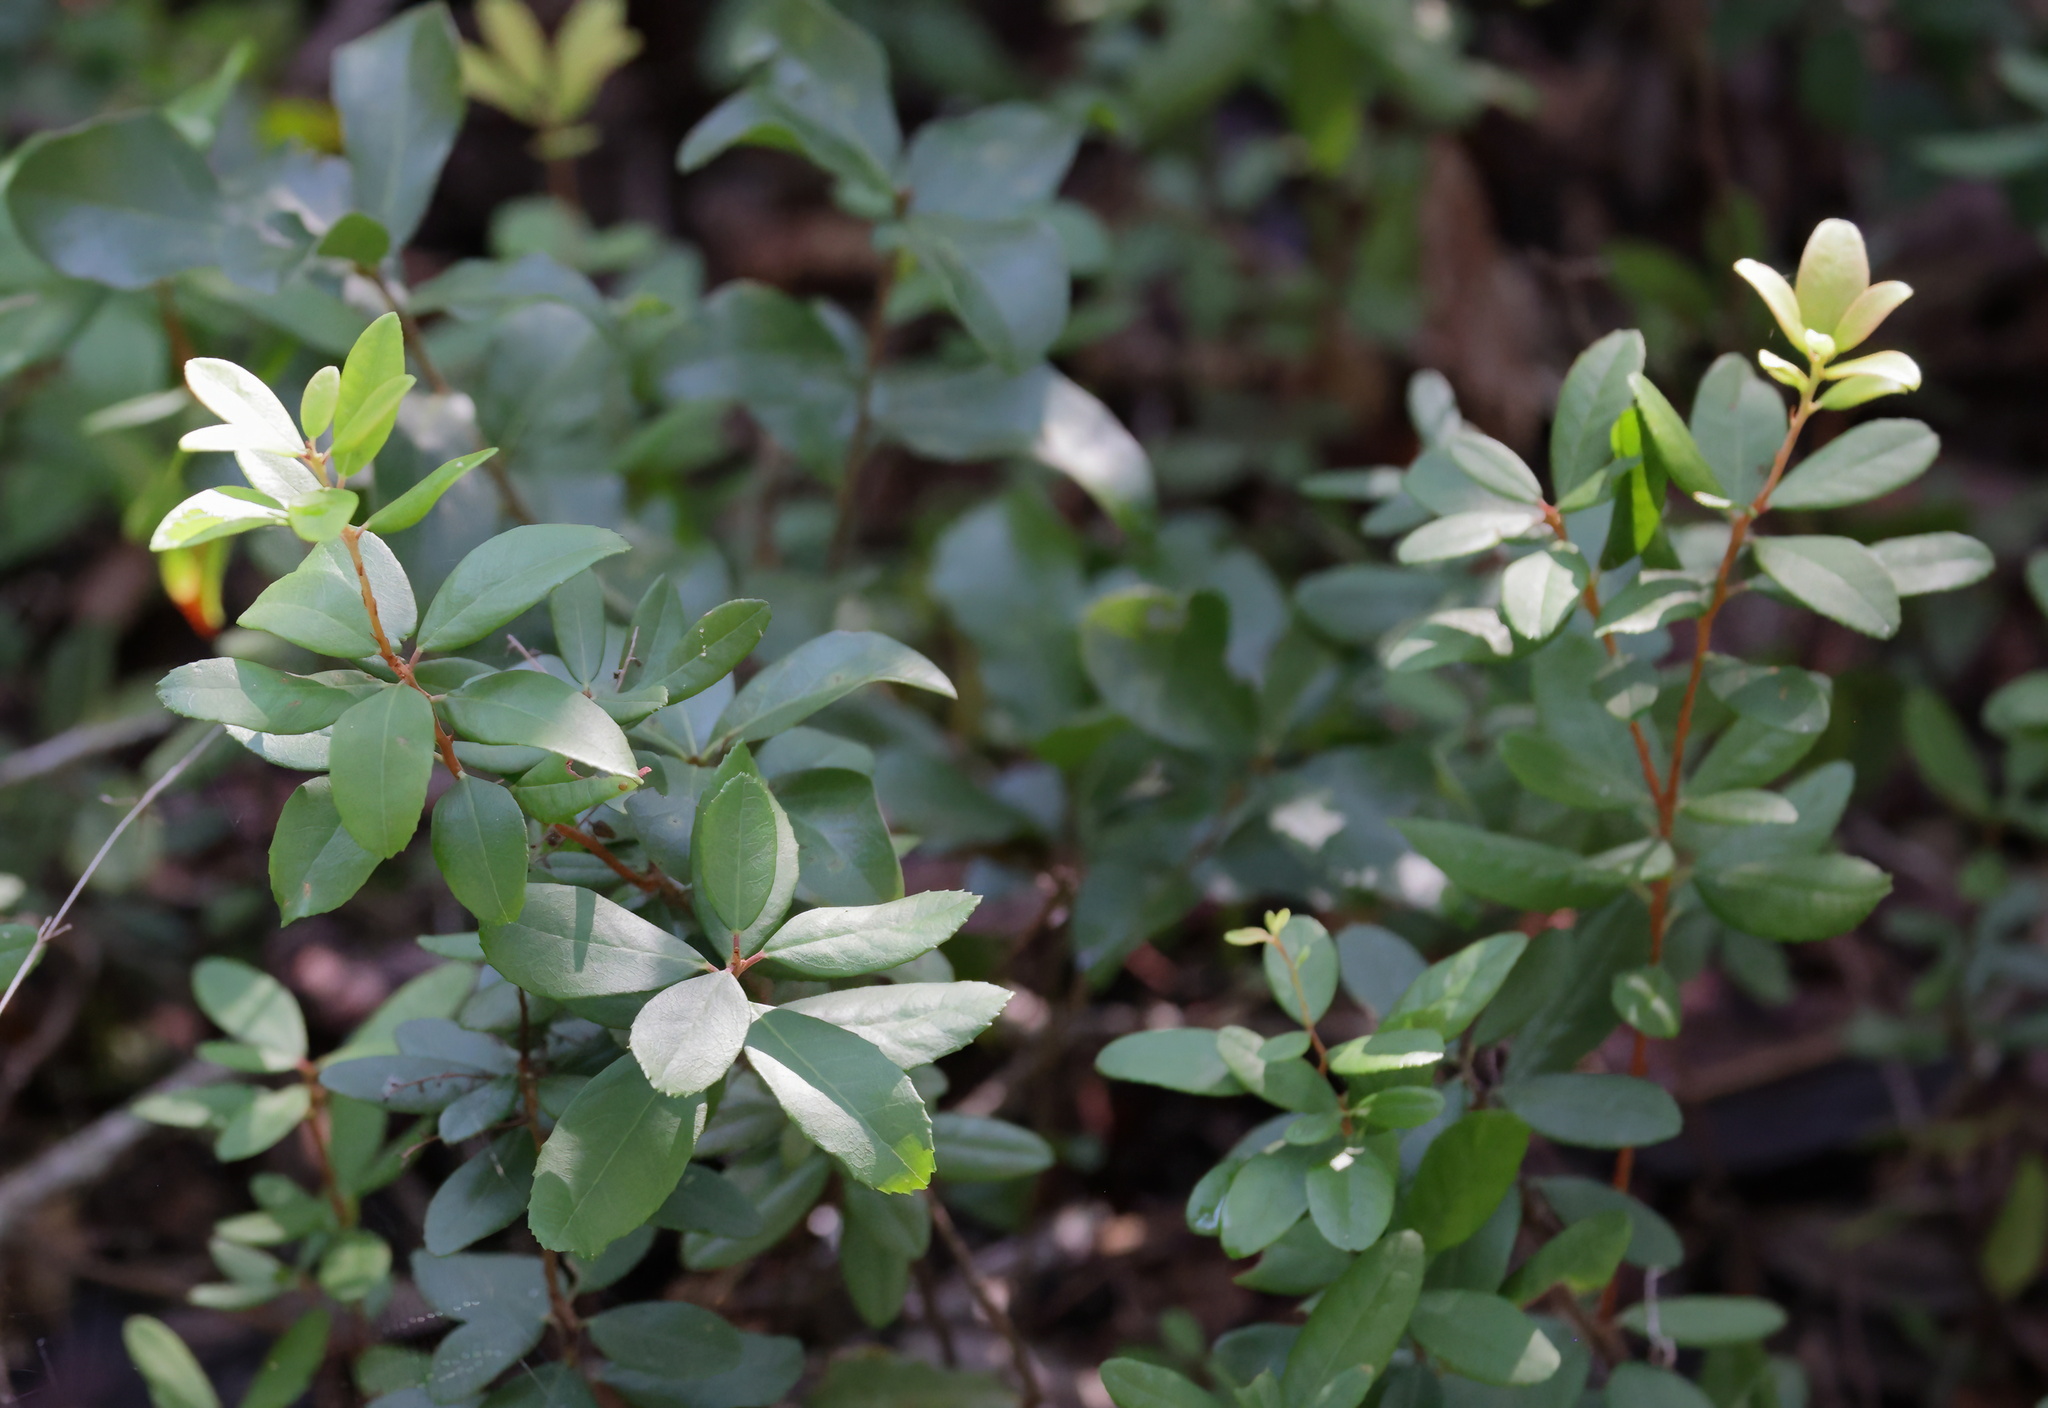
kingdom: Plantae
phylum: Tracheophyta
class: Magnoliopsida
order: Ericales
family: Ericaceae
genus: Pieris
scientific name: Pieris phillyreifolia
